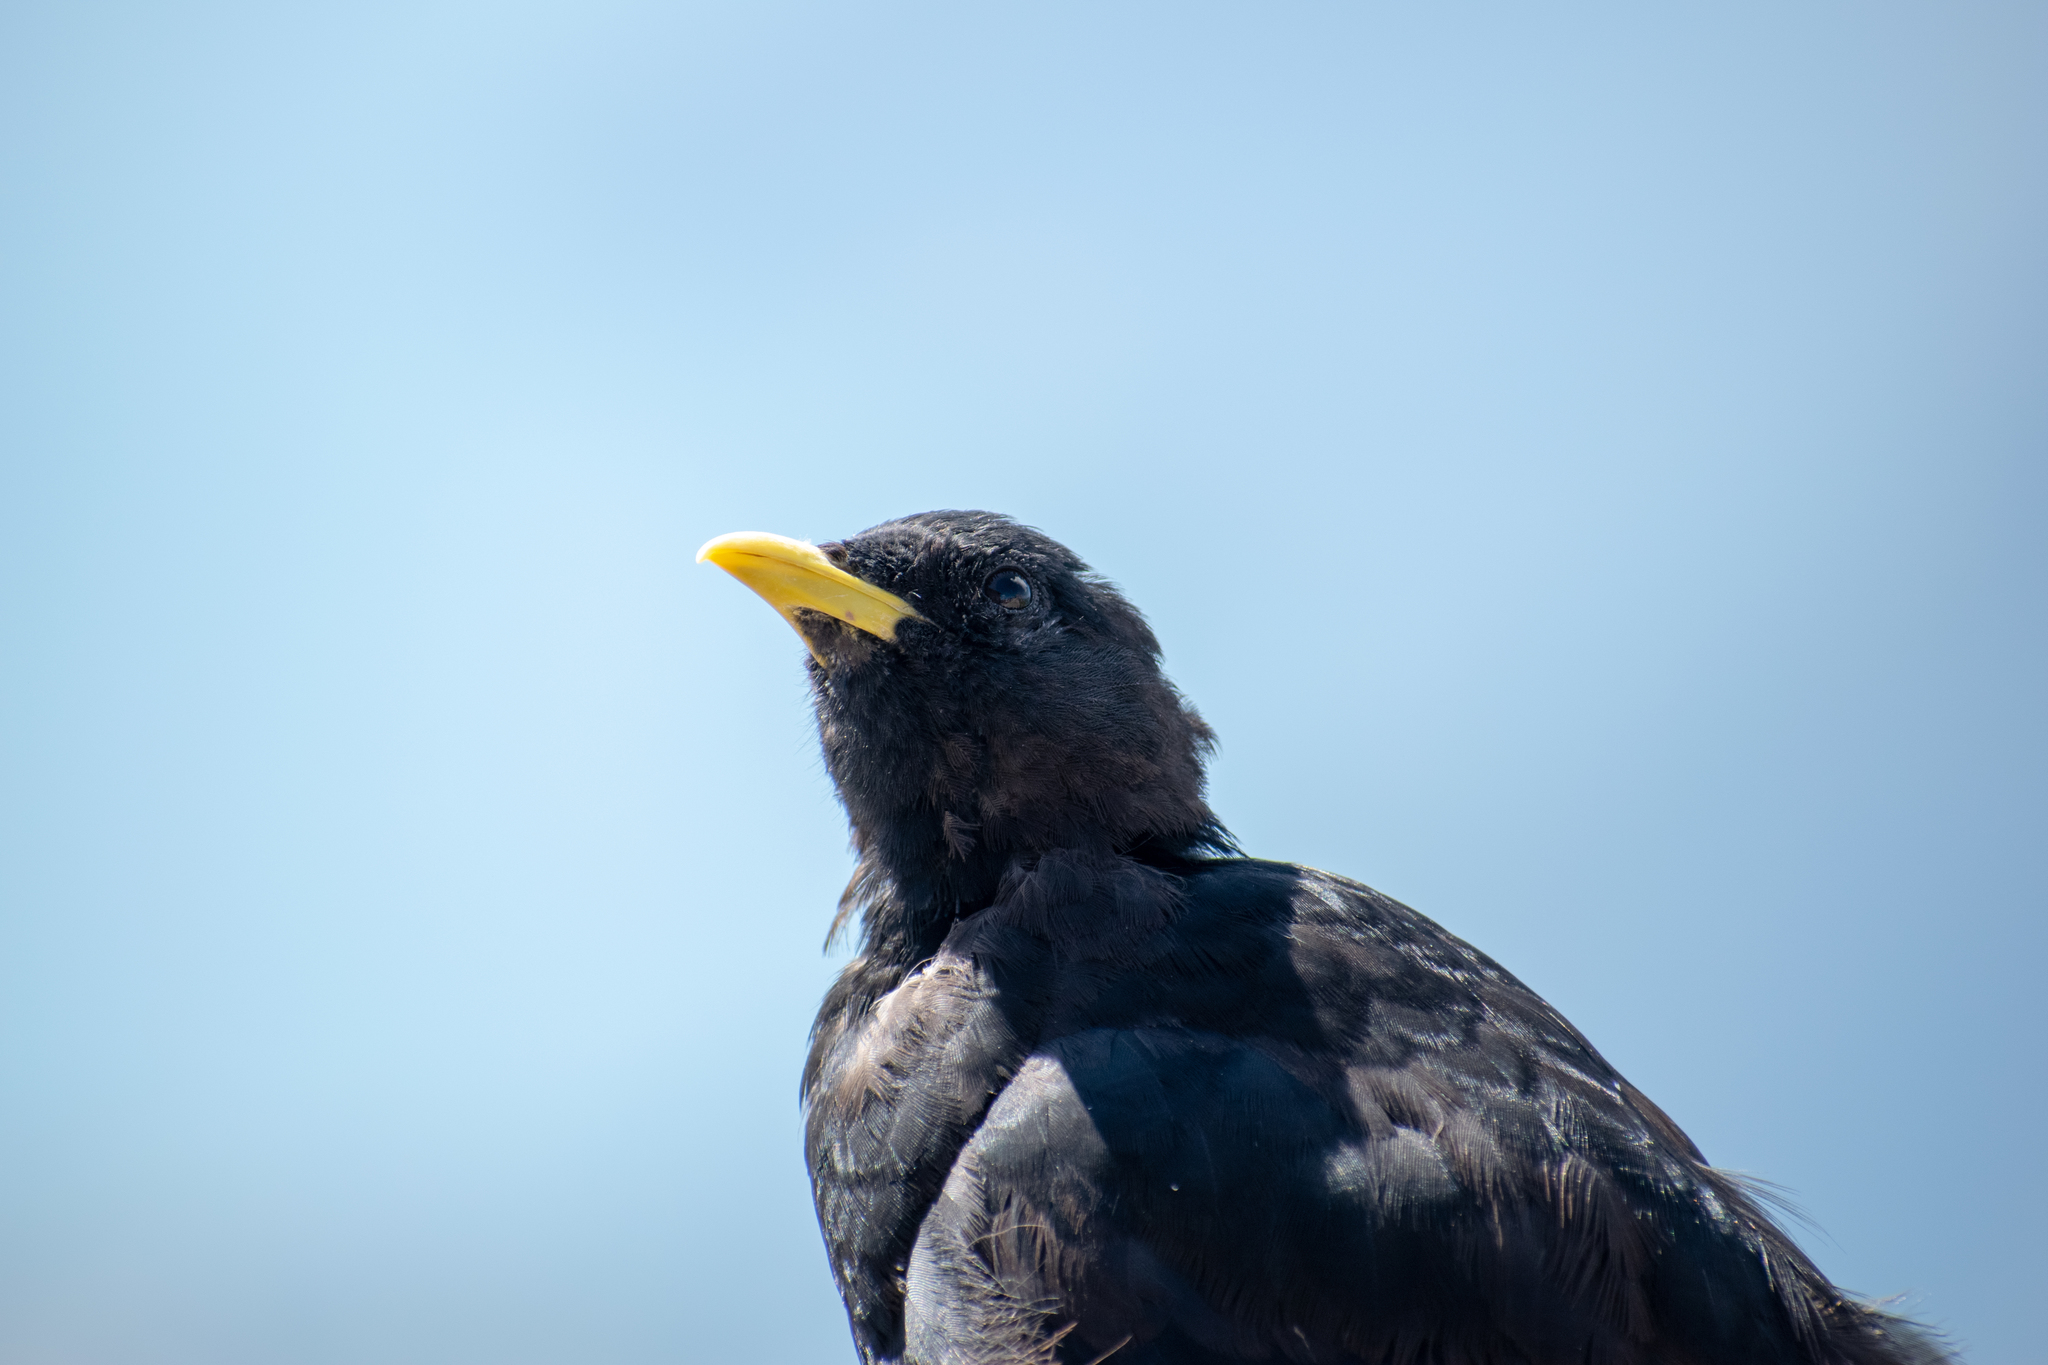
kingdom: Animalia
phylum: Chordata
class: Aves
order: Passeriformes
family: Corvidae
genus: Pyrrhocorax
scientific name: Pyrrhocorax graculus
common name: Alpine chough
